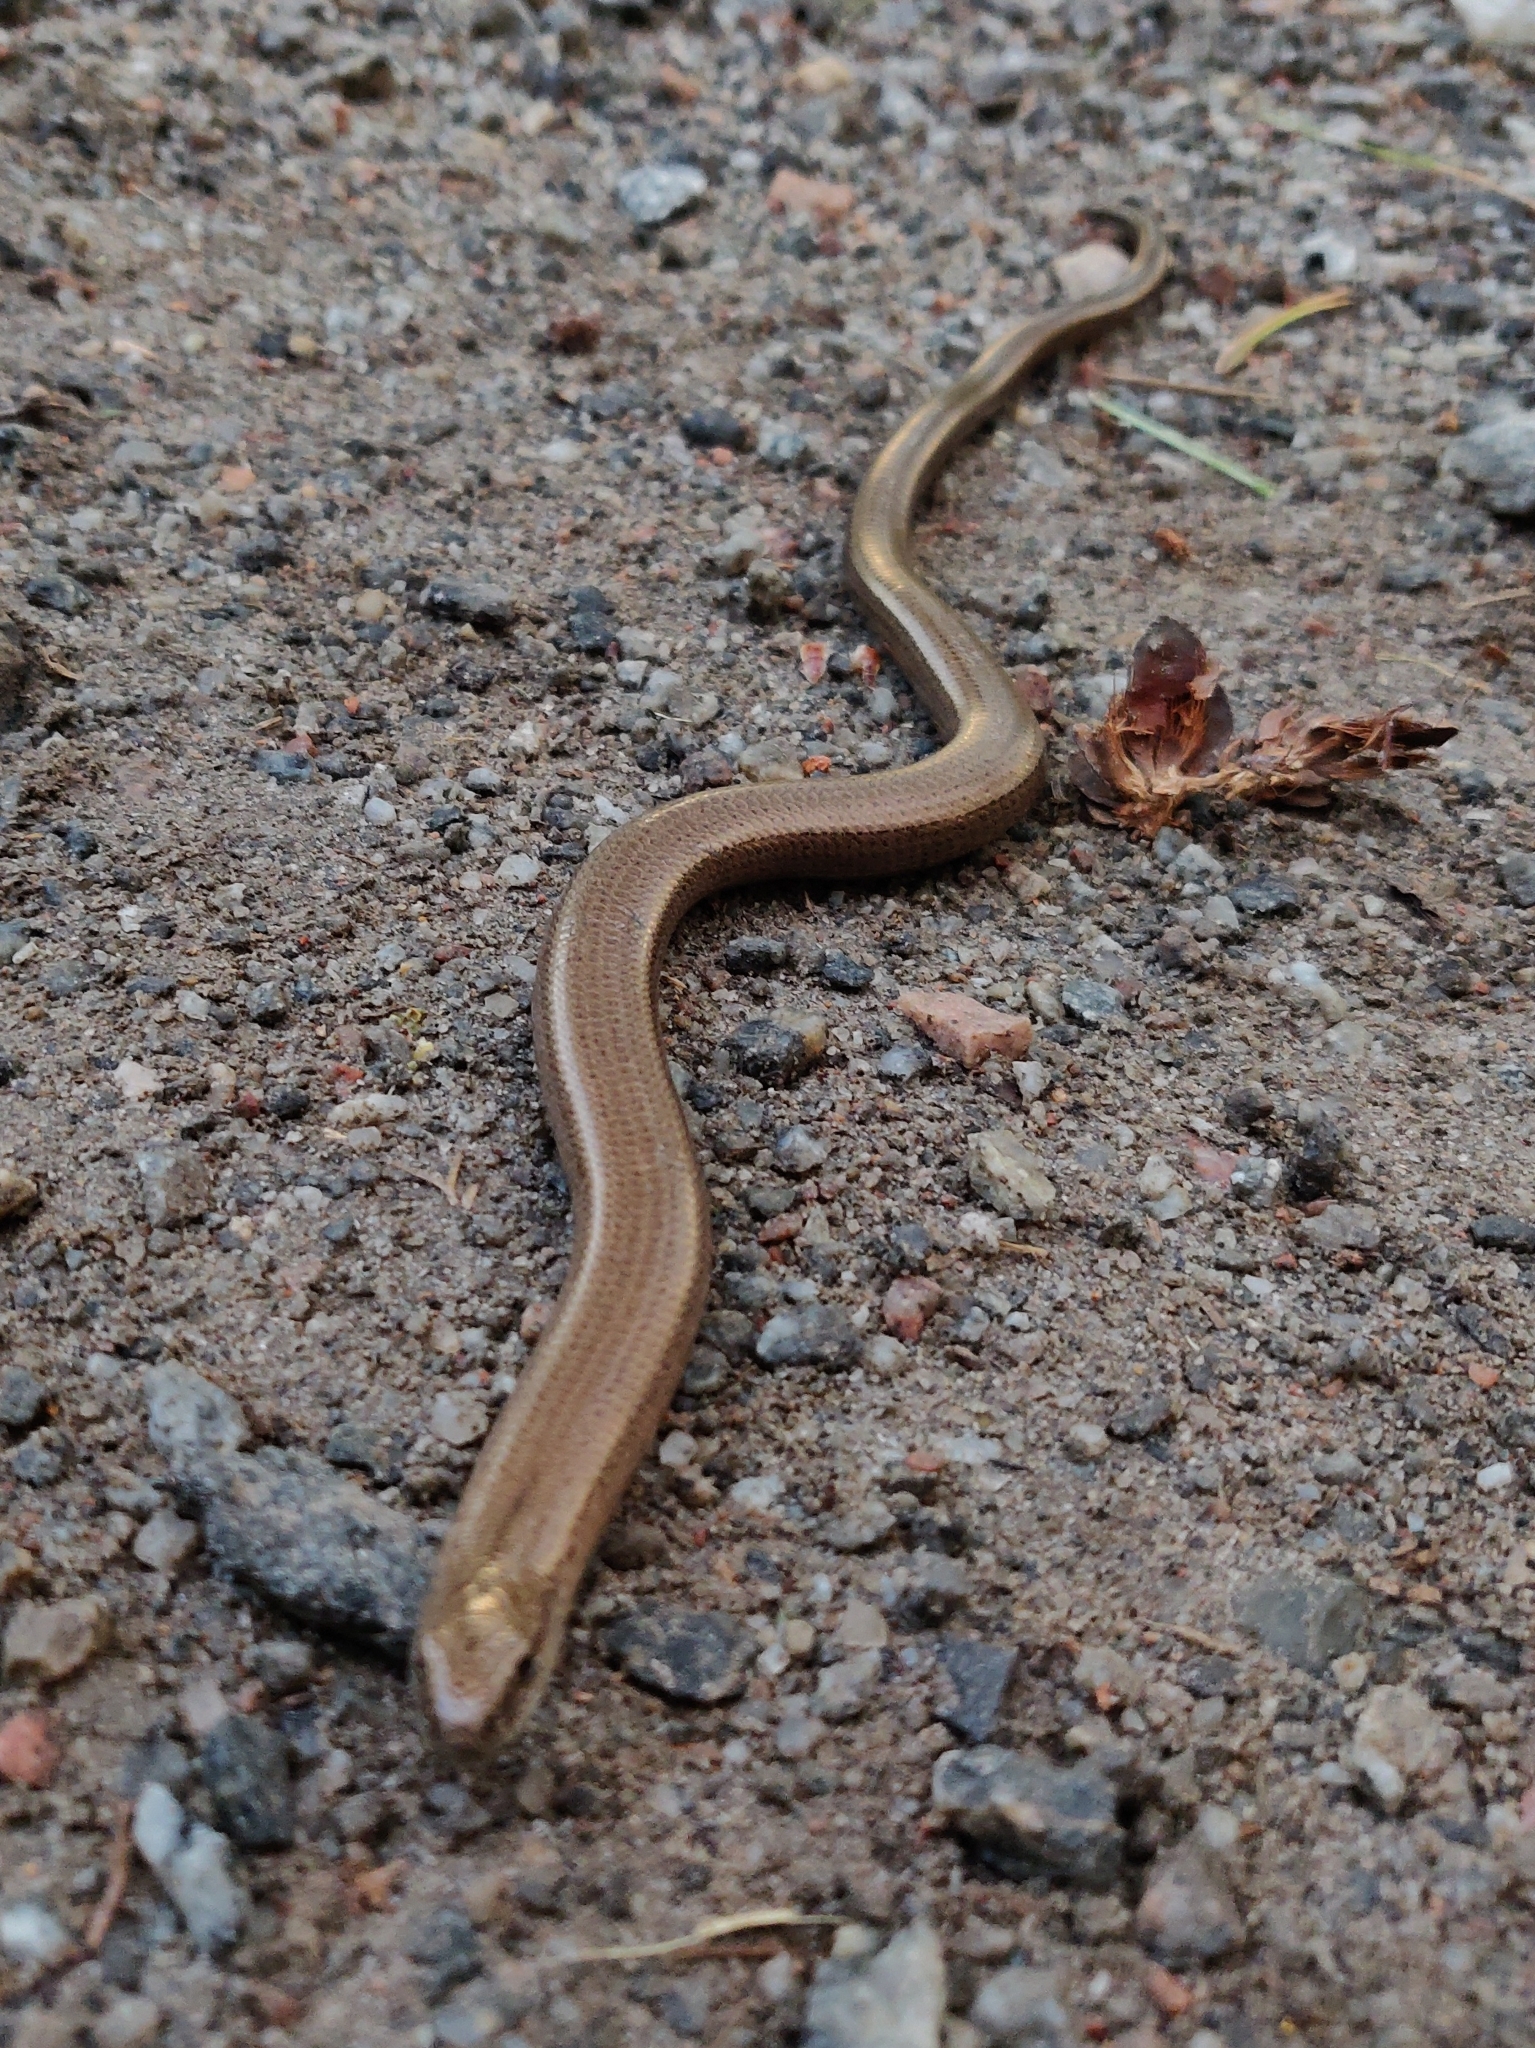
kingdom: Animalia
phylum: Chordata
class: Squamata
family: Anguidae
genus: Anguis
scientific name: Anguis fragilis
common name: Slow worm
